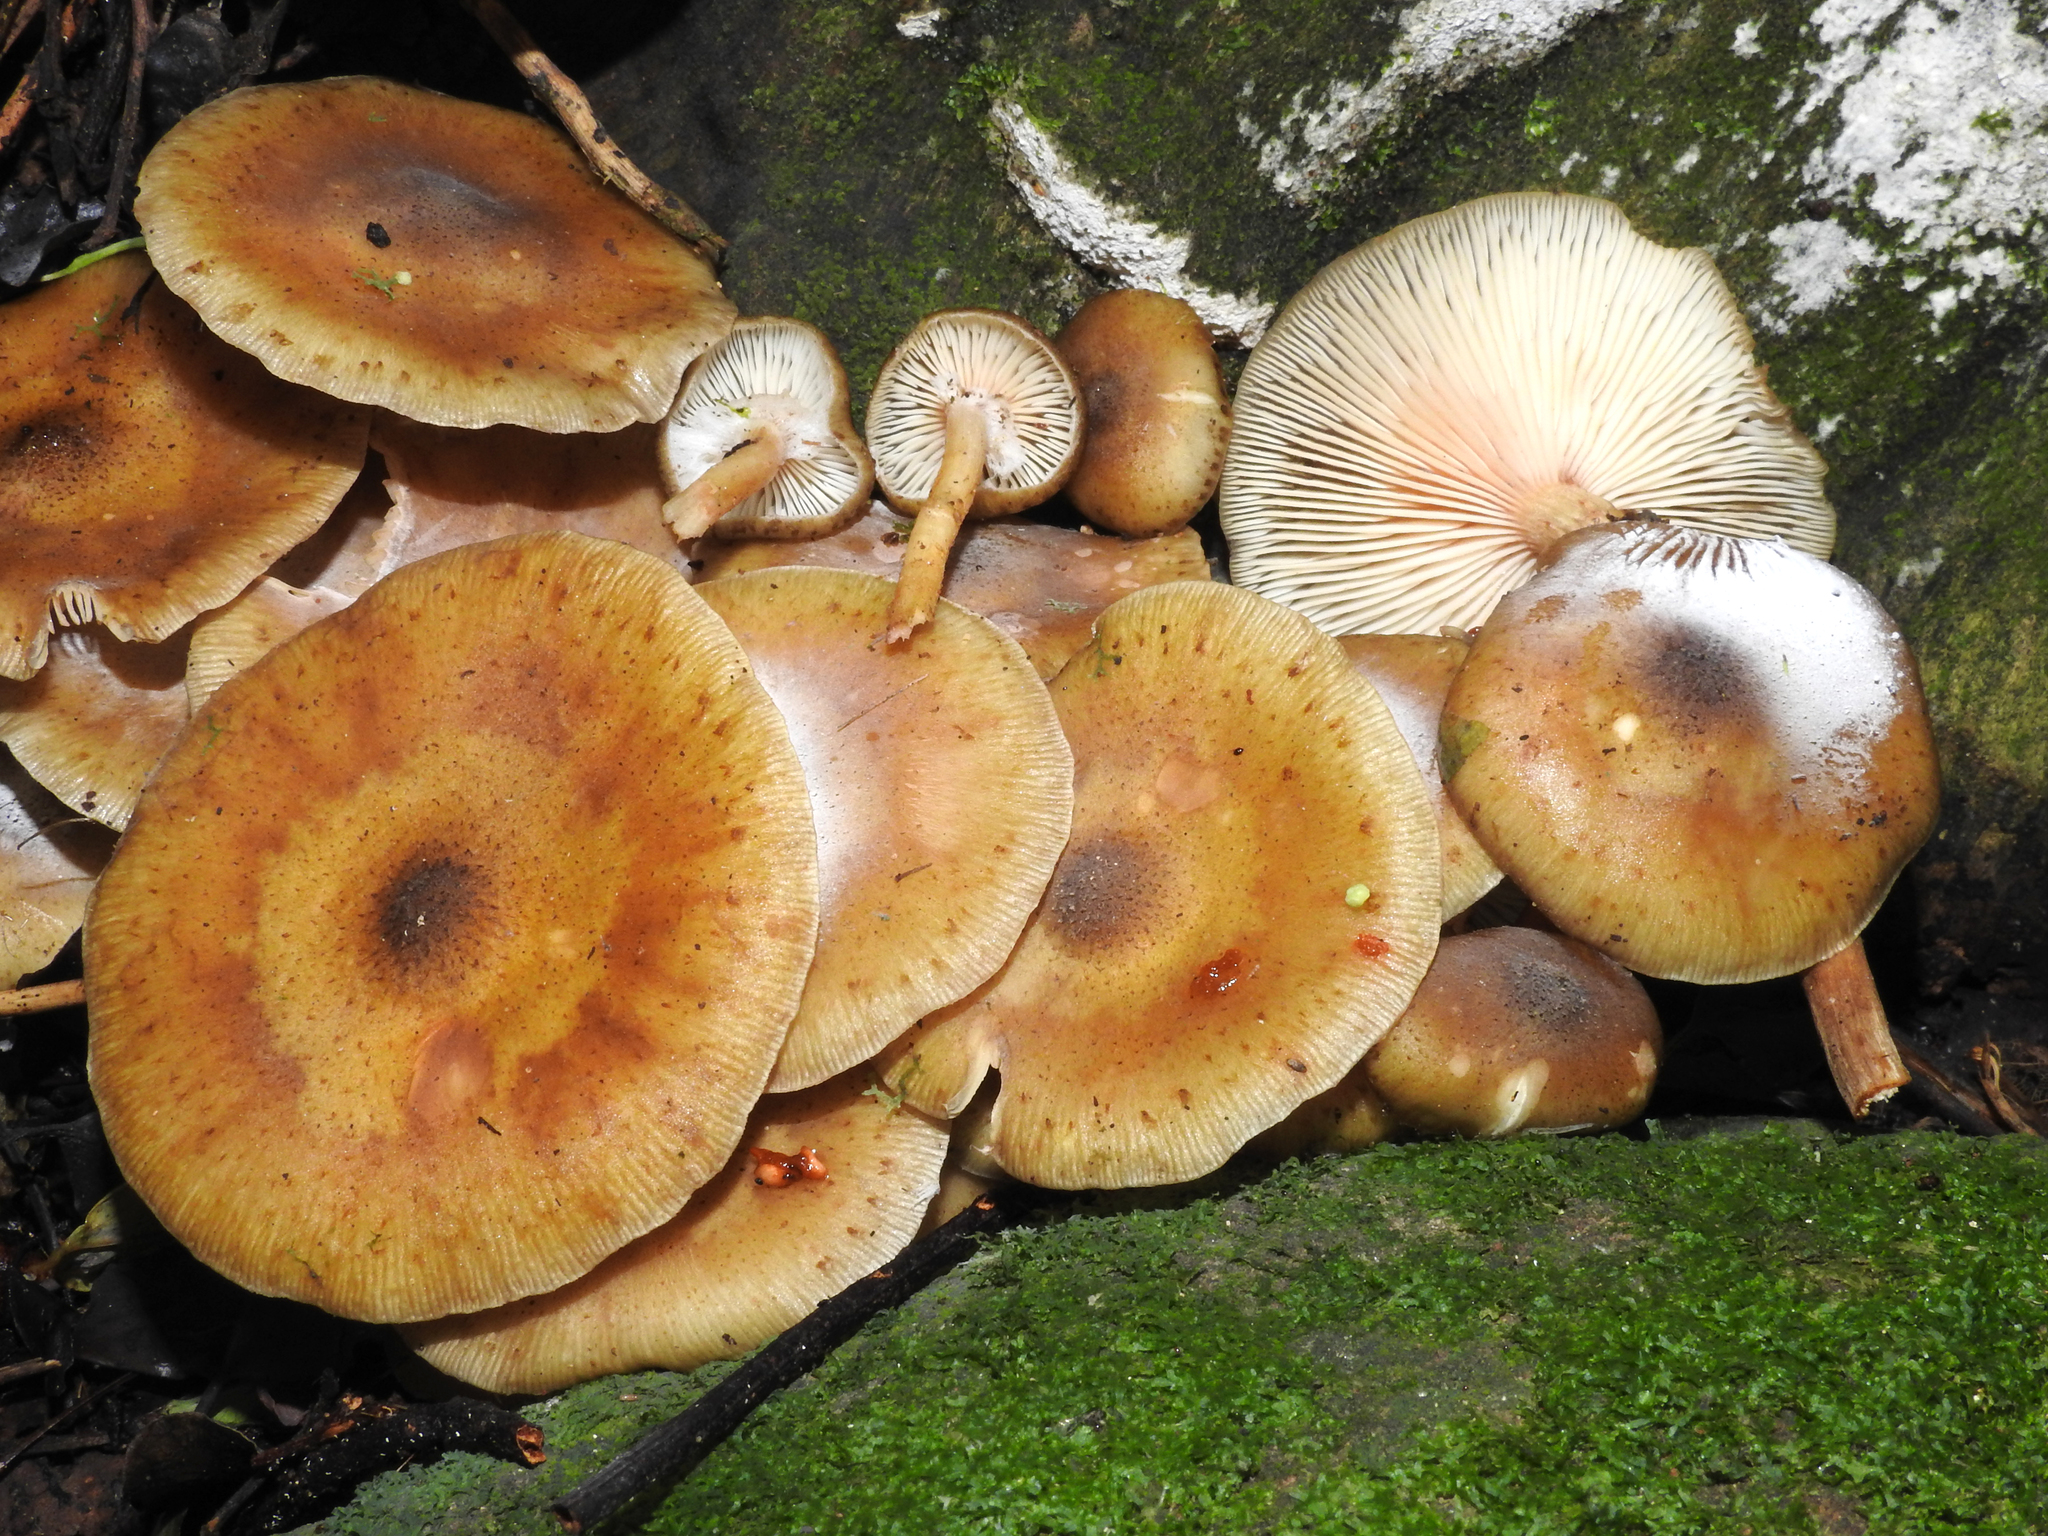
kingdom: Fungi
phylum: Basidiomycota
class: Agaricomycetes
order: Agaricales
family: Physalacriaceae
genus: Armillaria
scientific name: Armillaria novae-zelandiae
